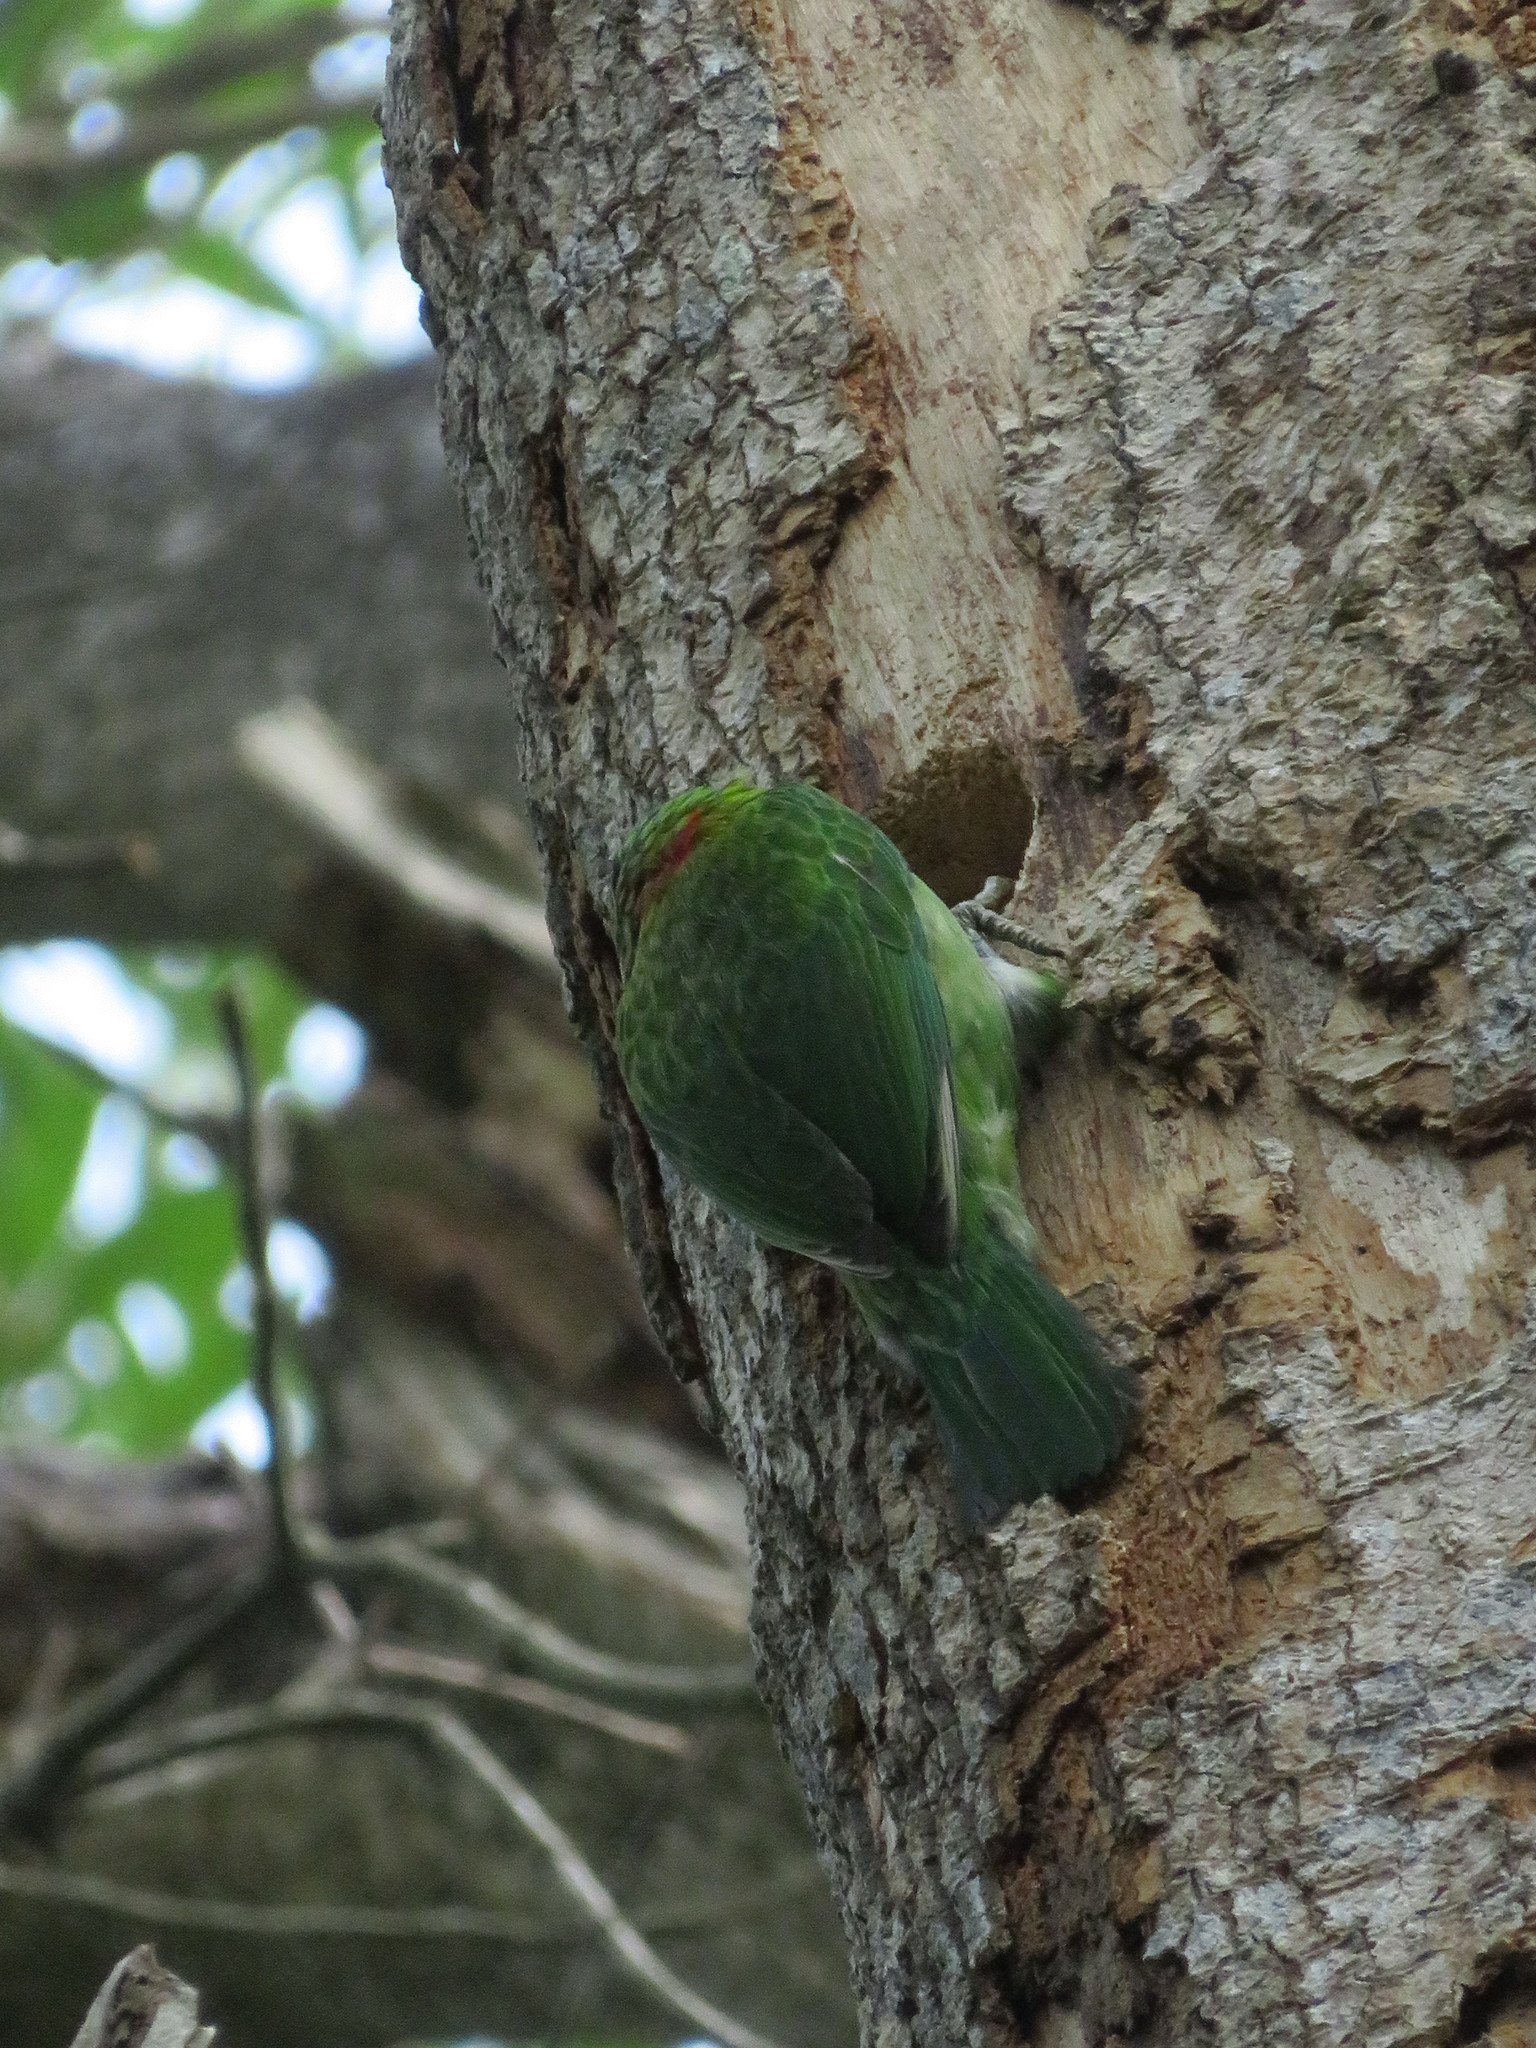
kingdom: Animalia
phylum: Chordata
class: Aves
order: Piciformes
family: Megalaimidae
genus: Psilopogon
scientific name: Psilopogon nuchalis
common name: Taiwan barbet
